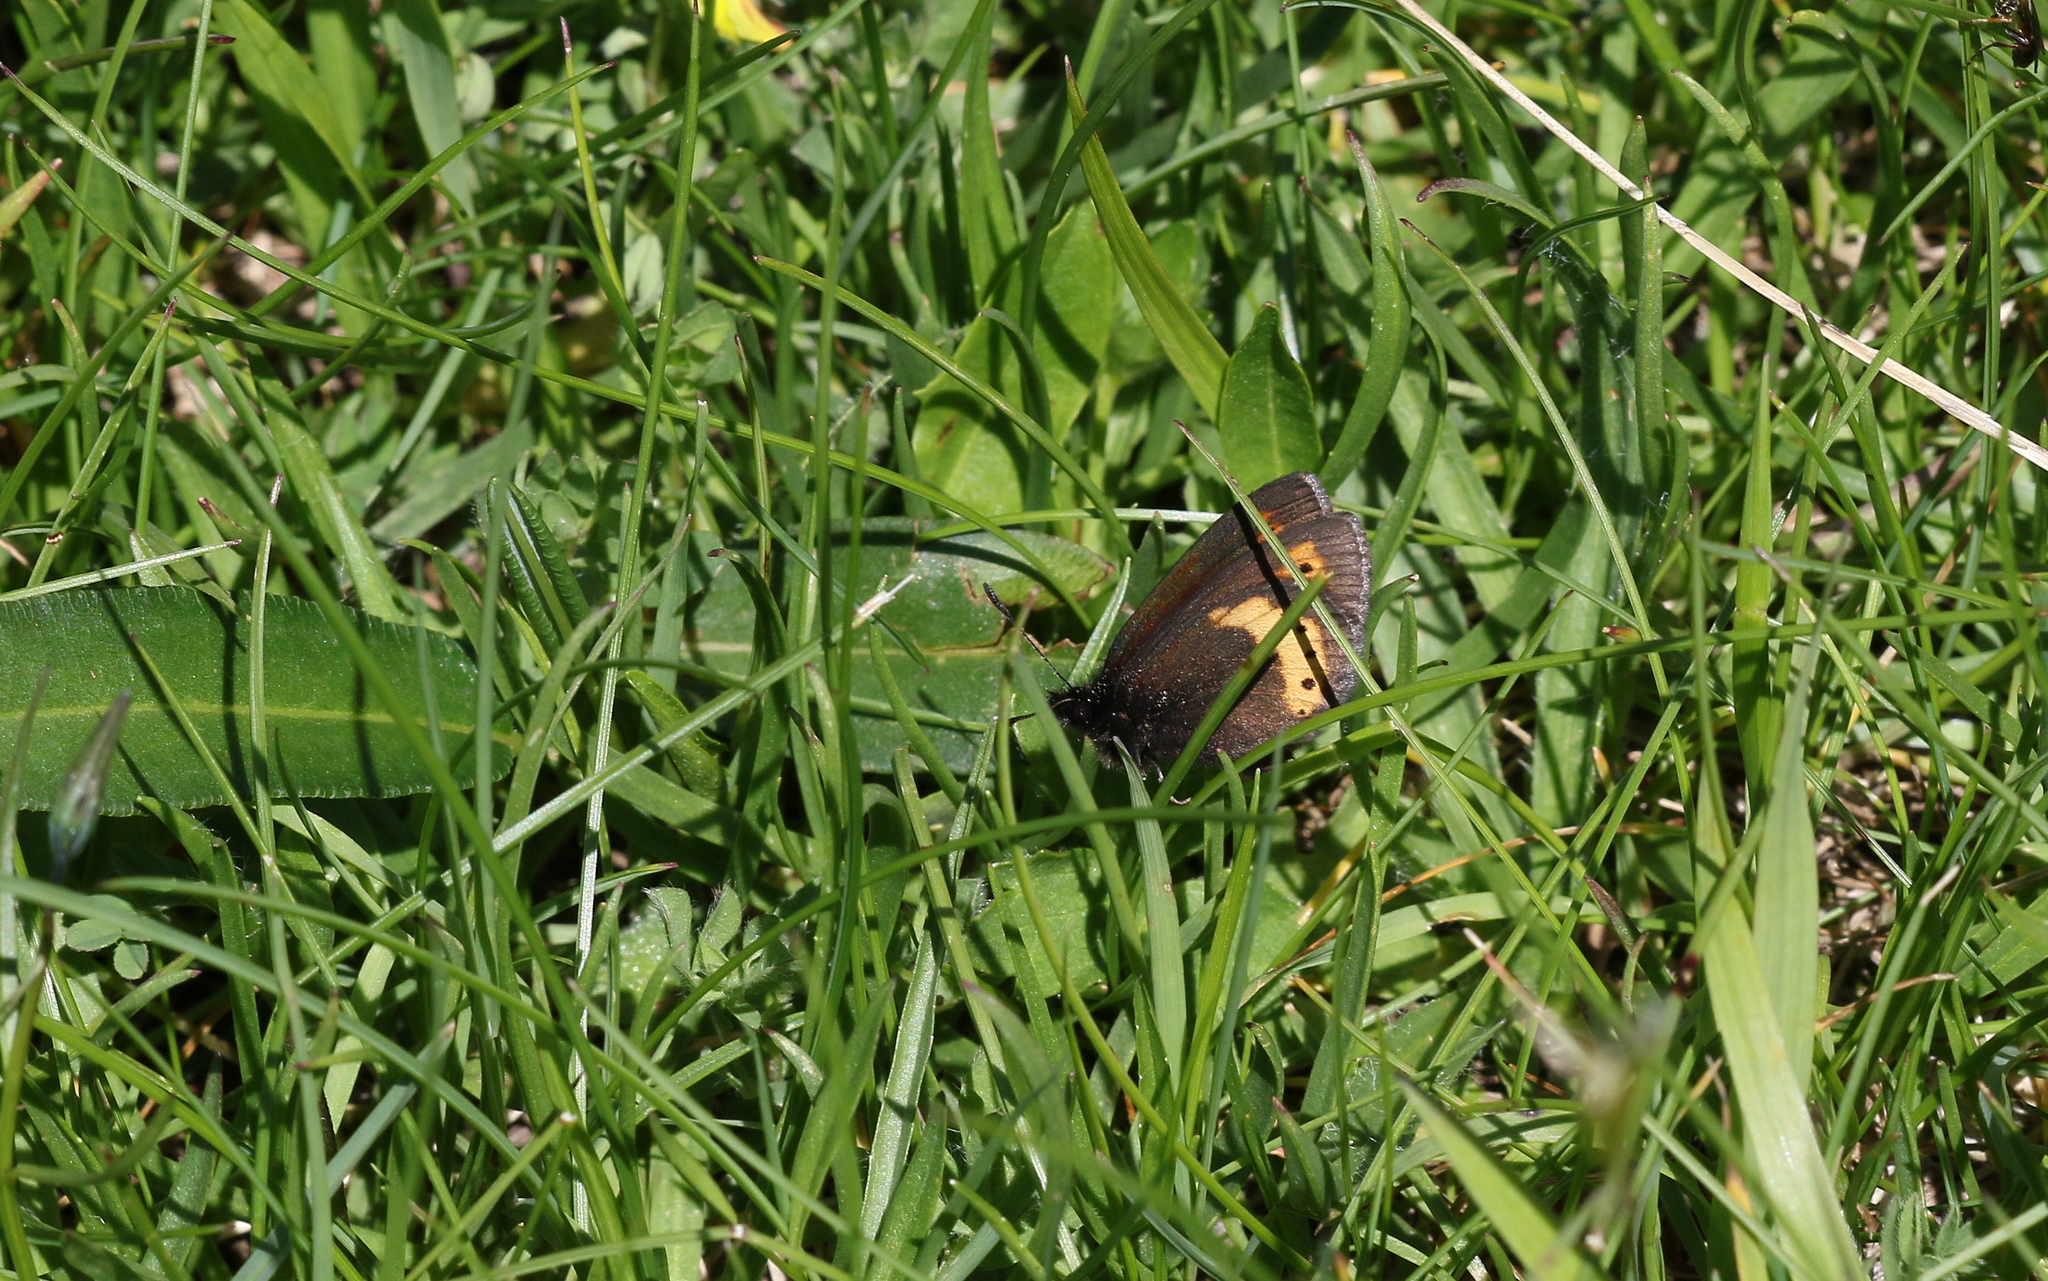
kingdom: Animalia
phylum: Arthropoda
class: Insecta
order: Lepidoptera
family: Nymphalidae
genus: Erebia
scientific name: Erebia flavofasciata
